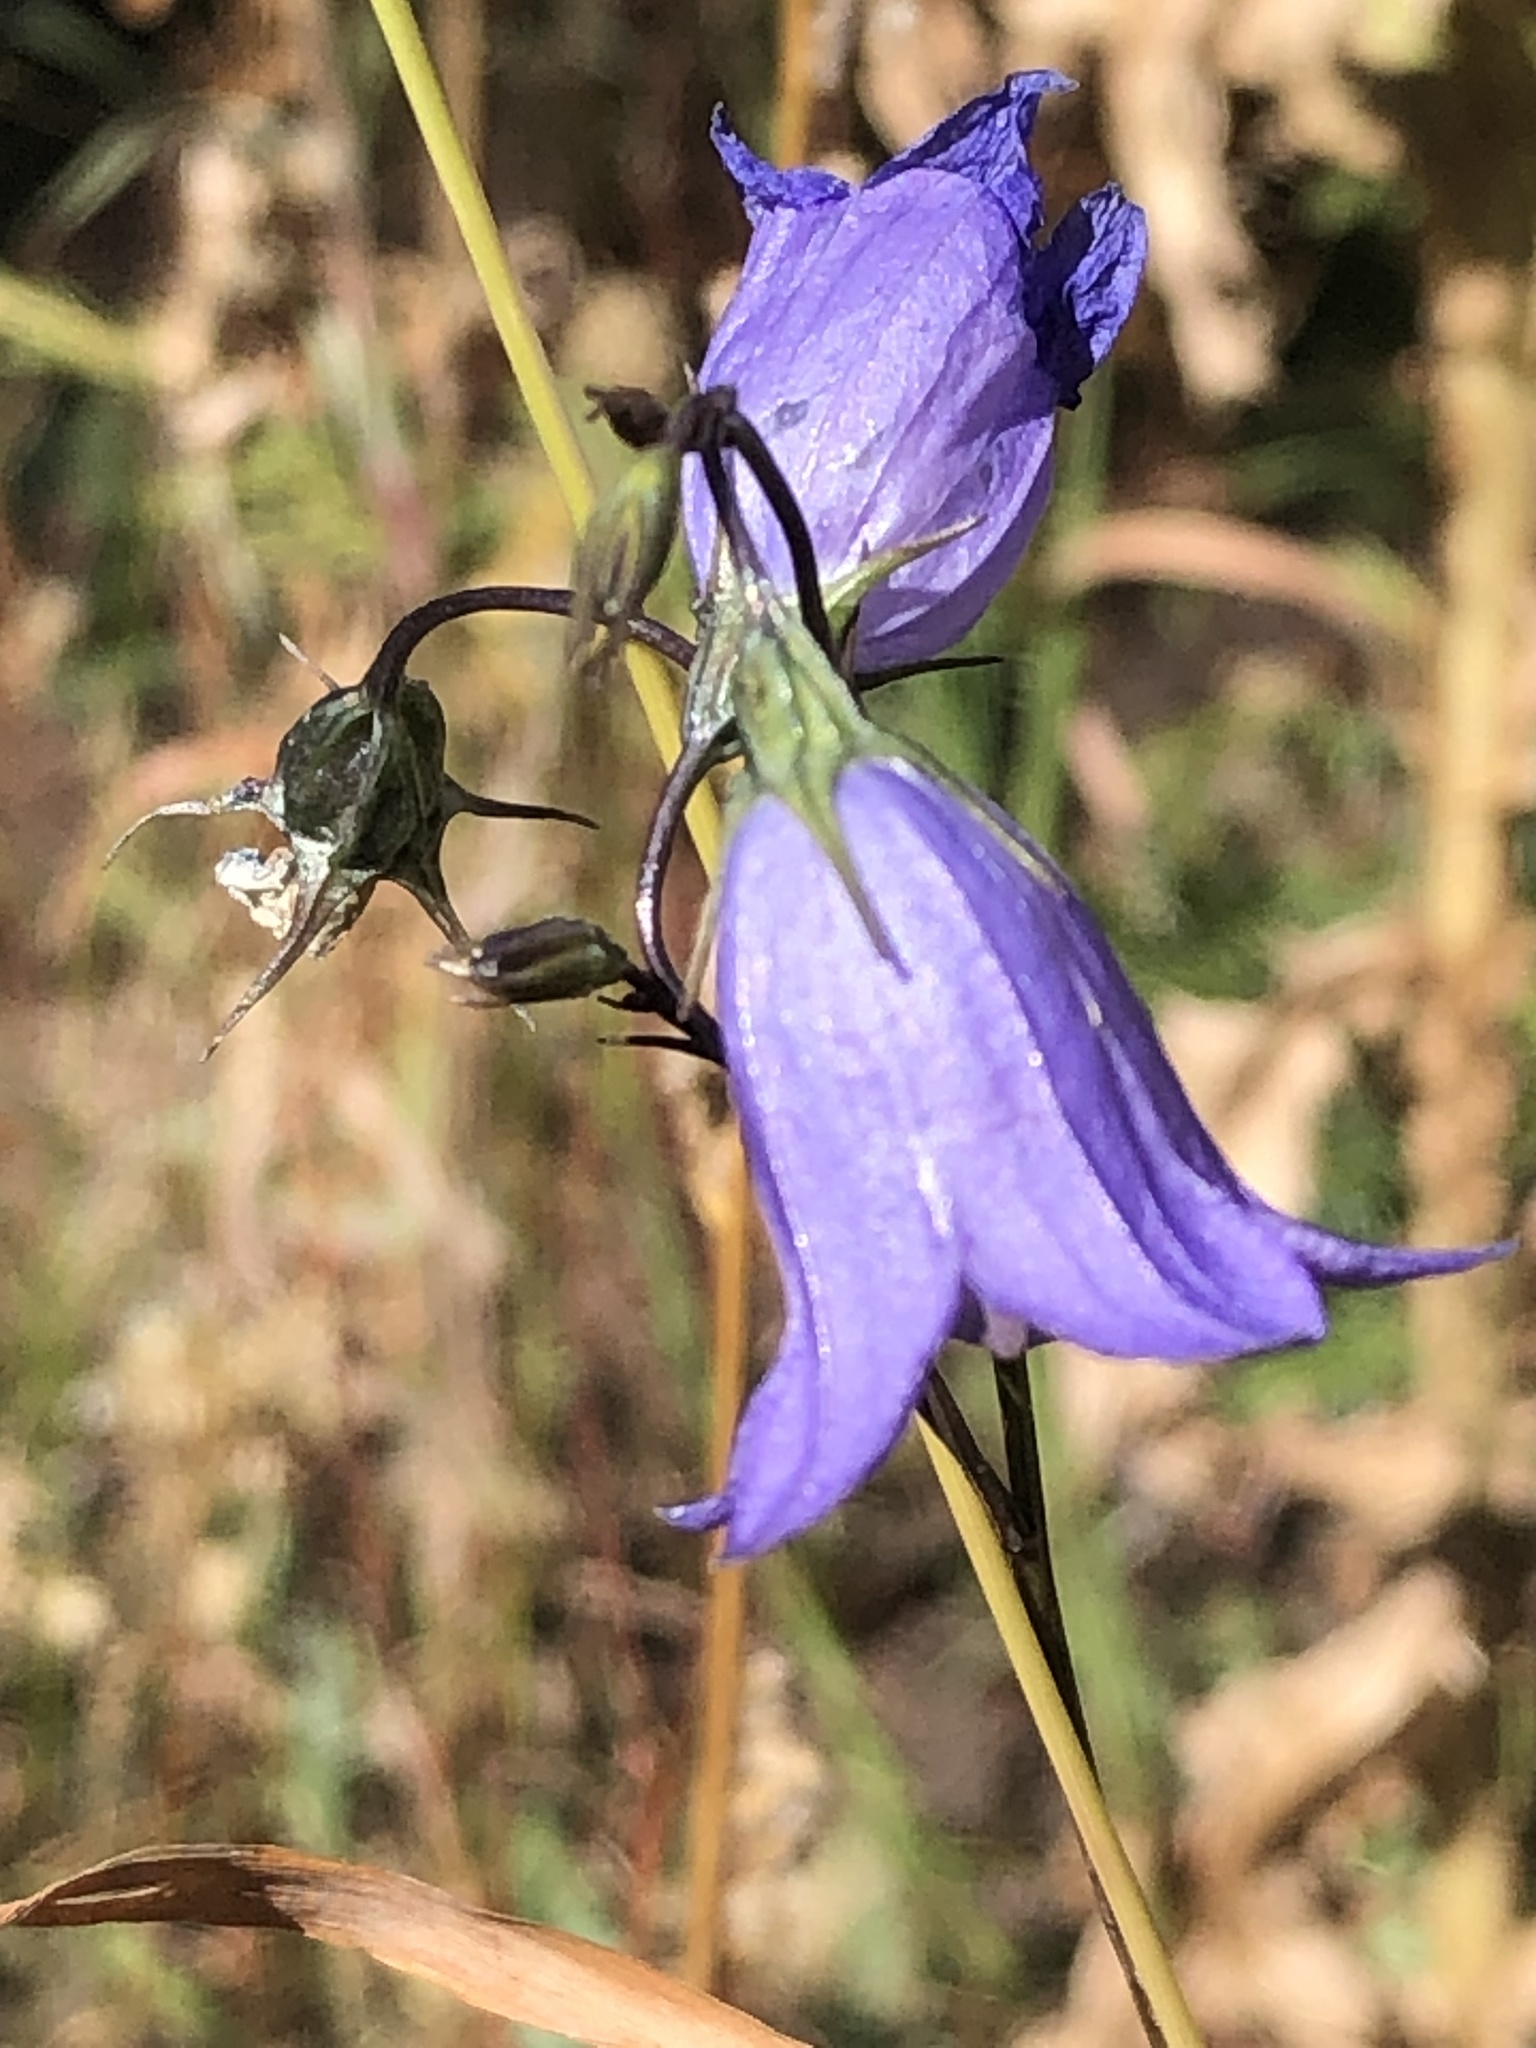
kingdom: Plantae
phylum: Tracheophyta
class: Magnoliopsida
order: Asterales
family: Campanulaceae
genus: Campanula
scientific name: Campanula petiolata
